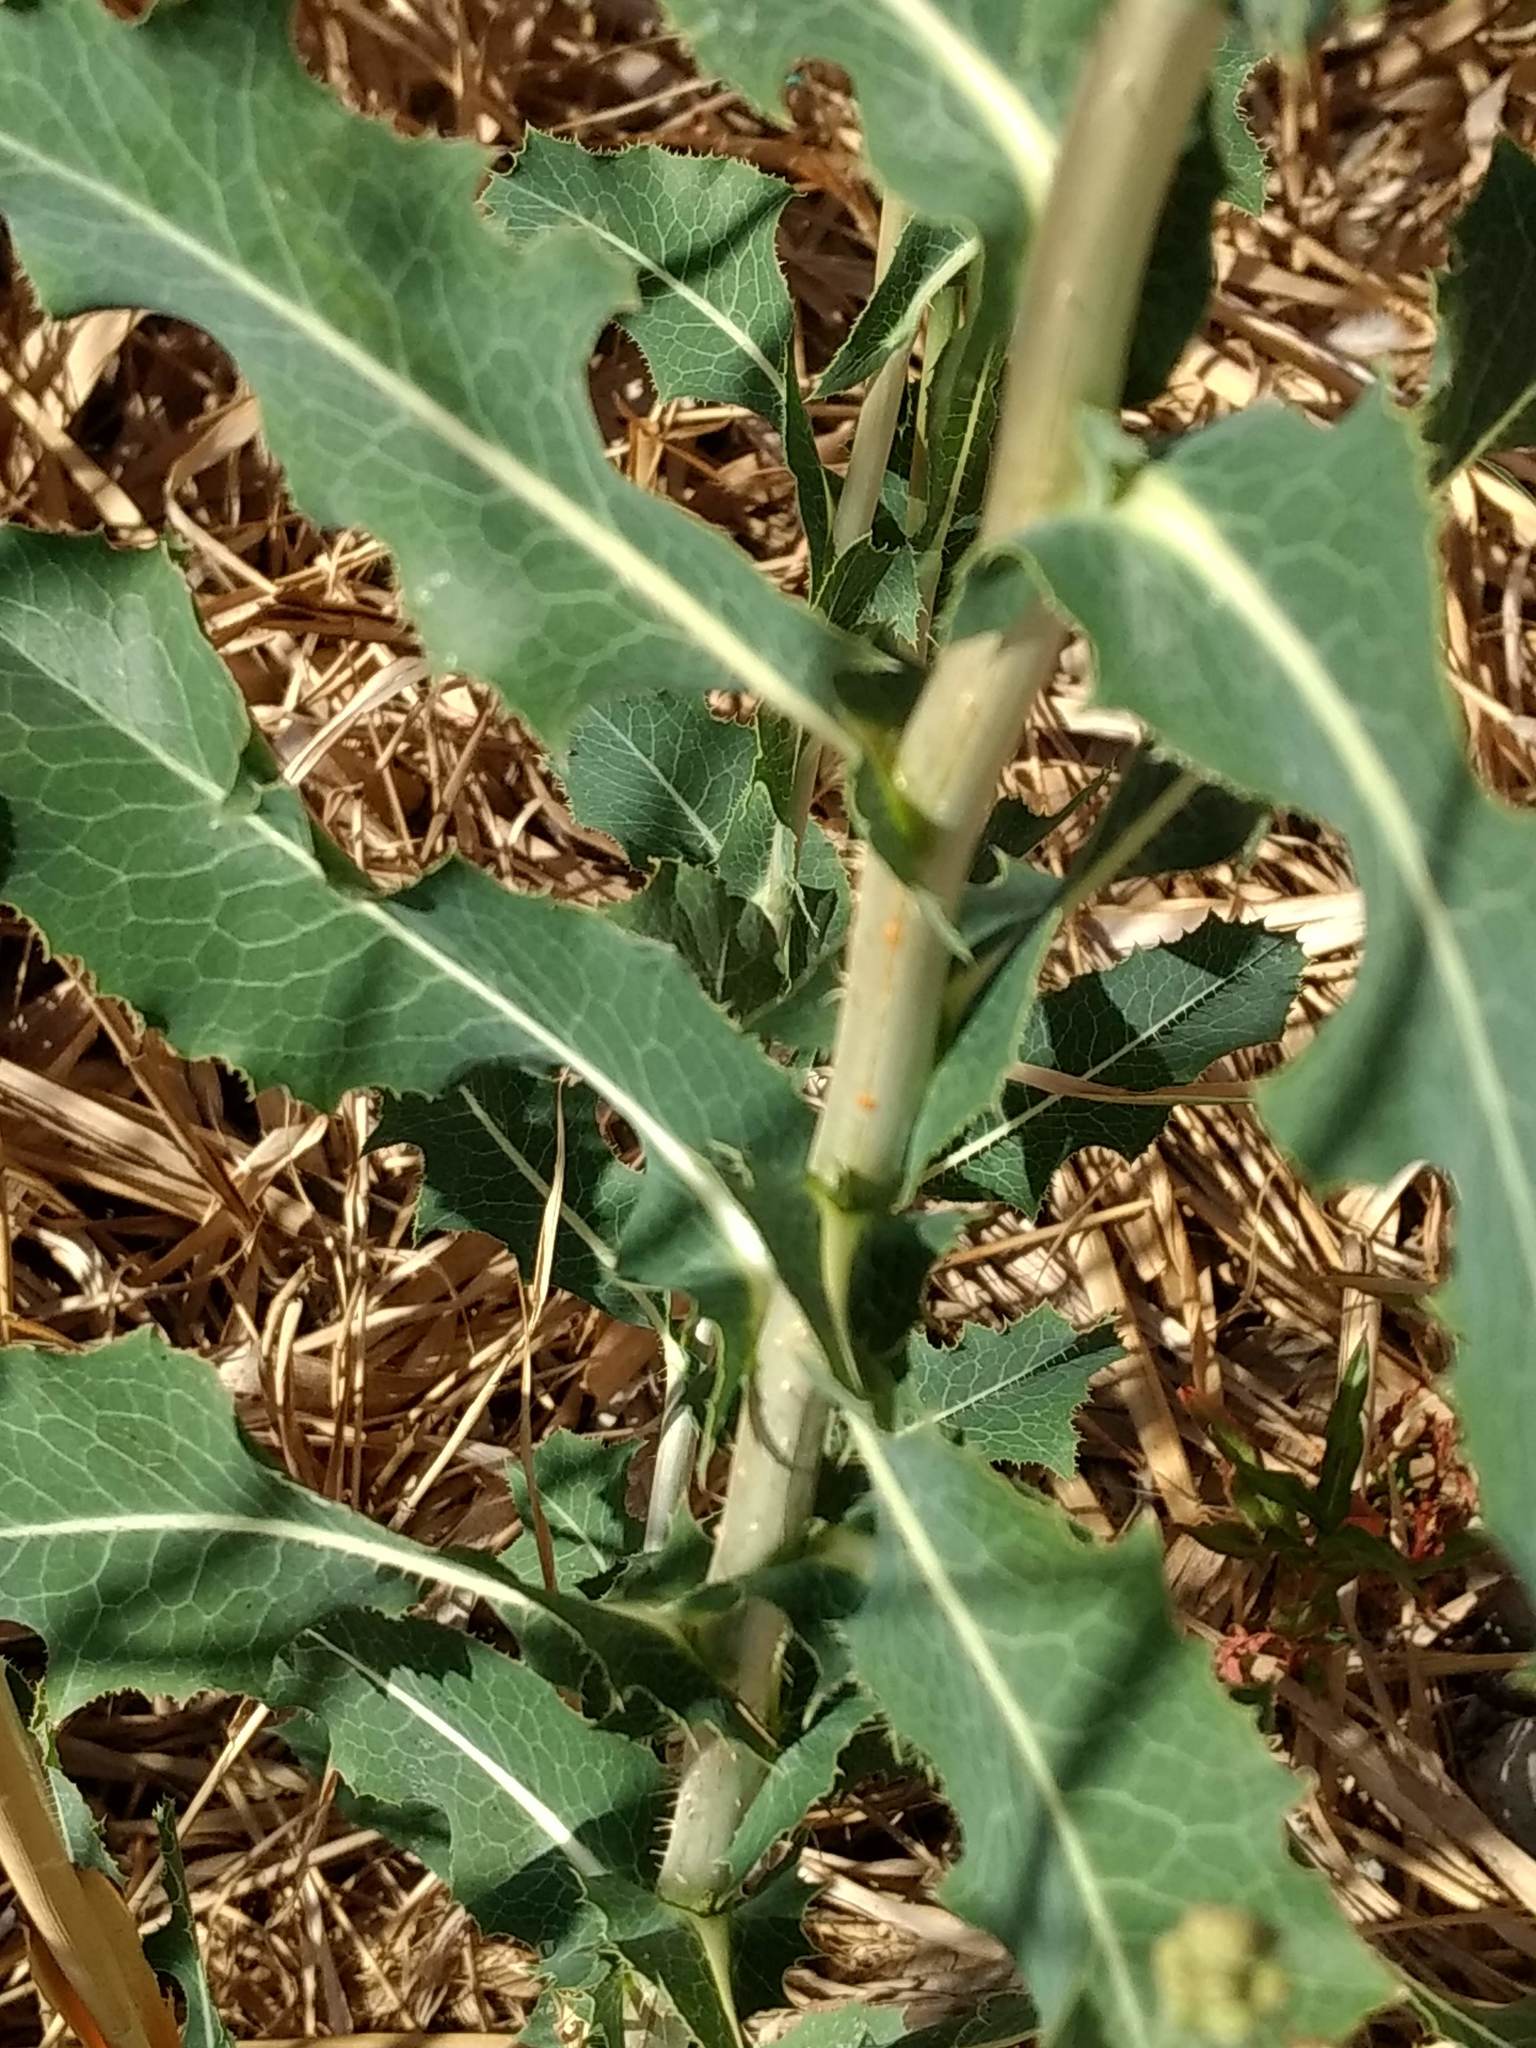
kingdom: Plantae
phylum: Tracheophyta
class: Magnoliopsida
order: Asterales
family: Asteraceae
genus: Lactuca
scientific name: Lactuca serriola
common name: Prickly lettuce
